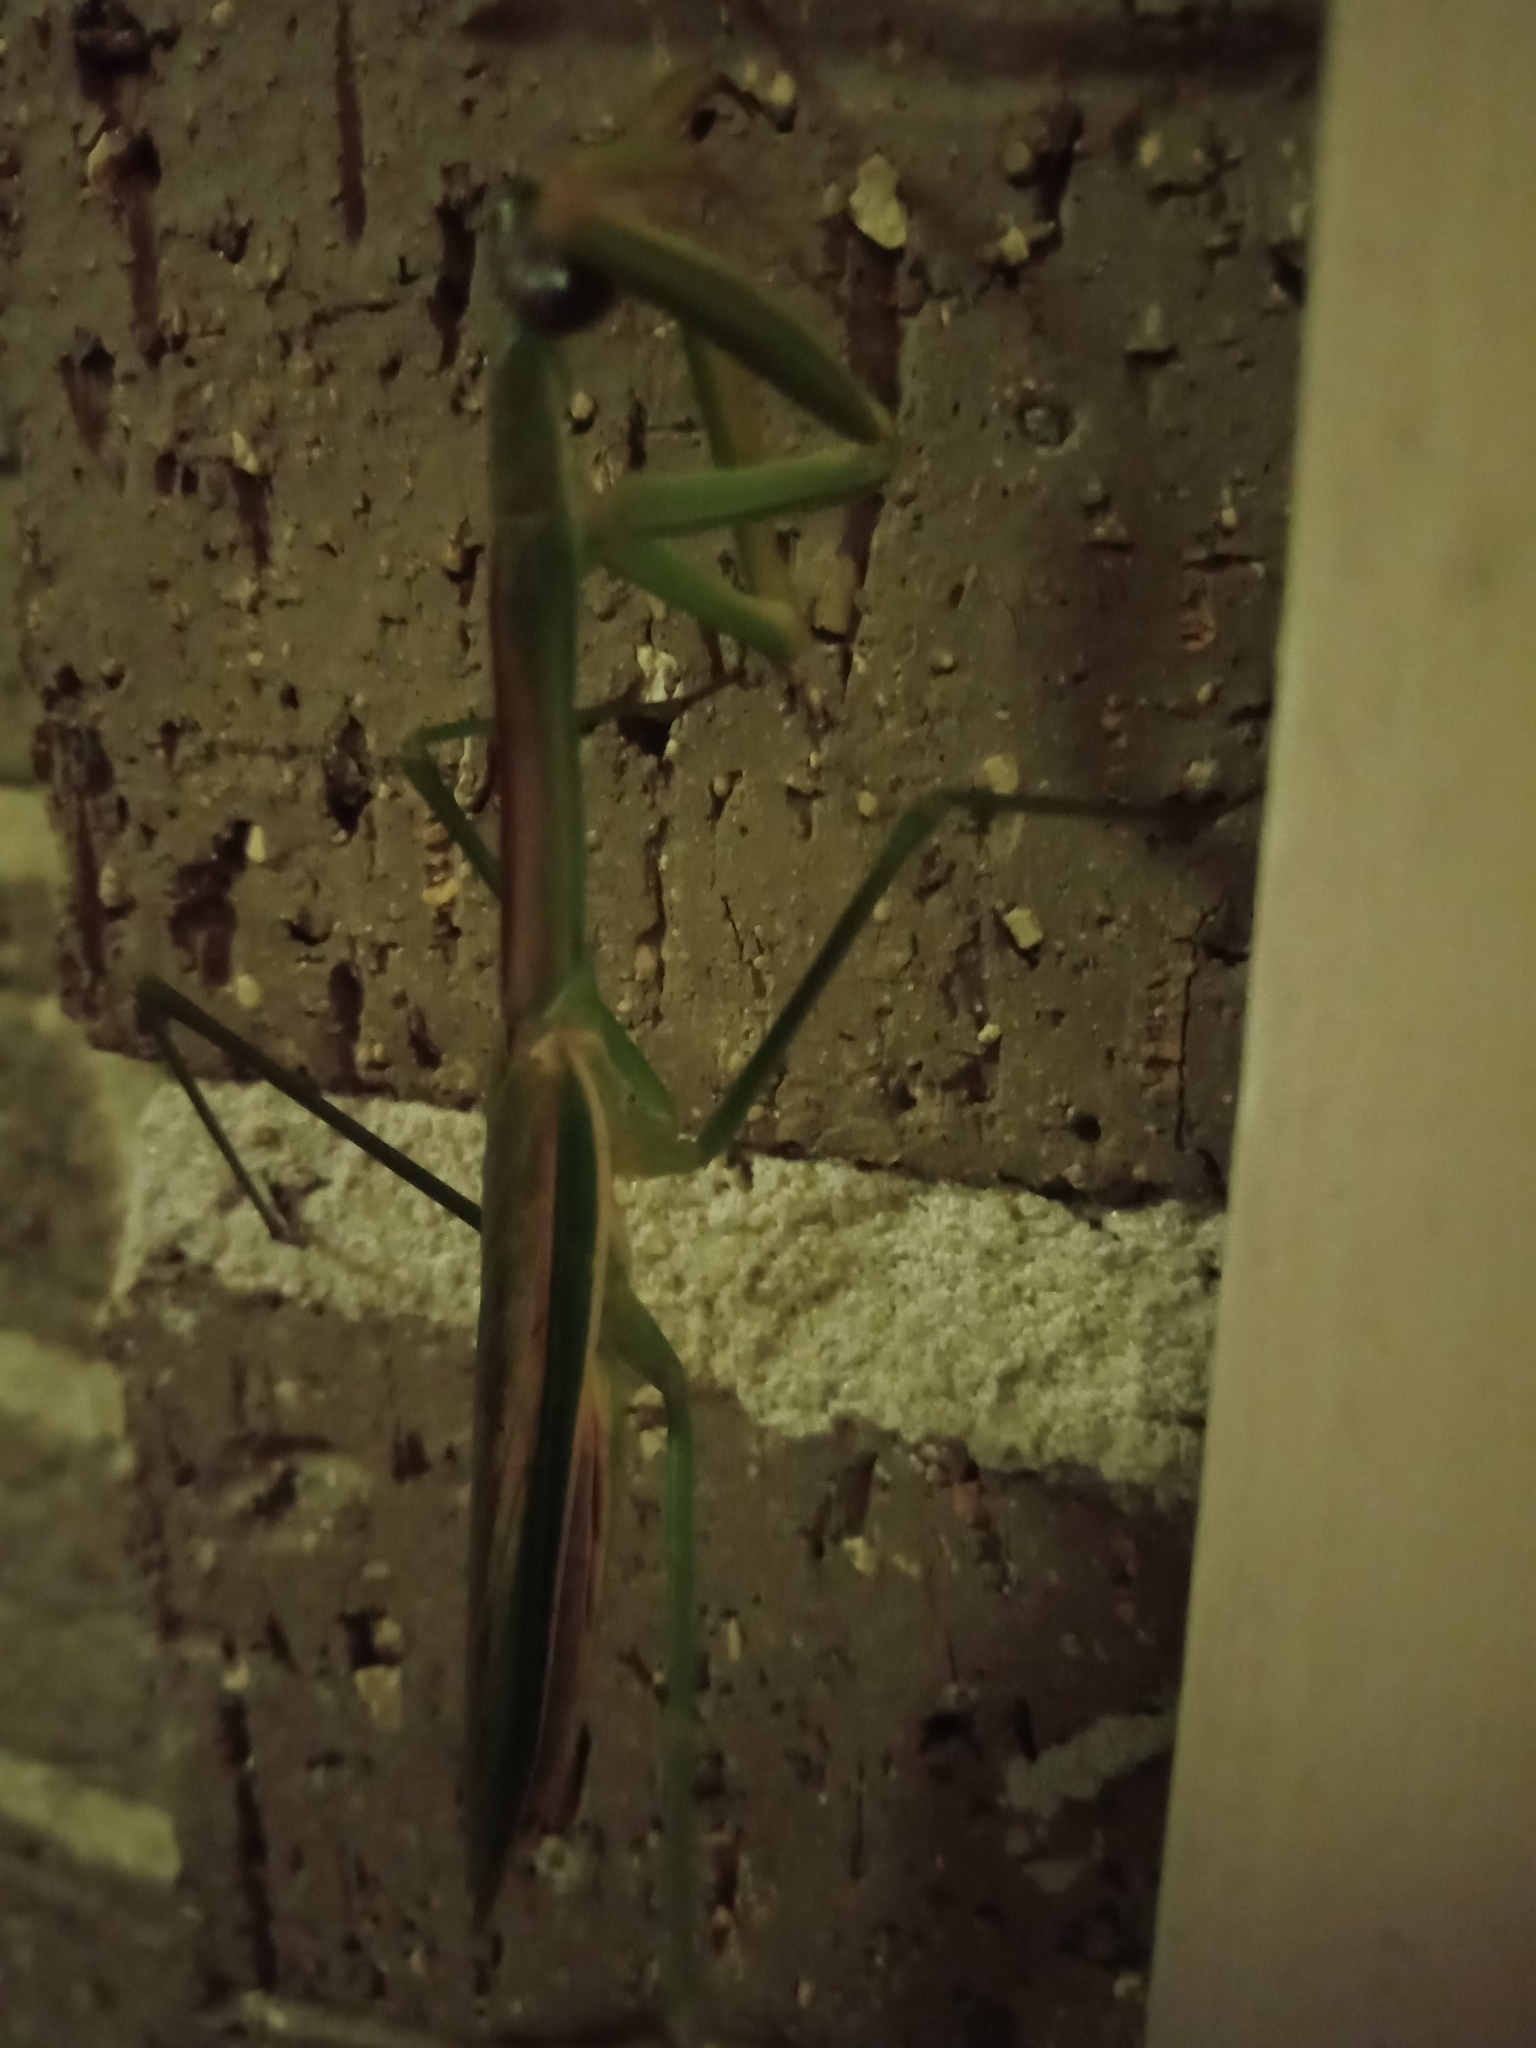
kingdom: Animalia
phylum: Arthropoda
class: Insecta
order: Mantodea
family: Mantidae
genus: Tenodera
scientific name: Tenodera australasiae
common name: Purple-winged mantis
